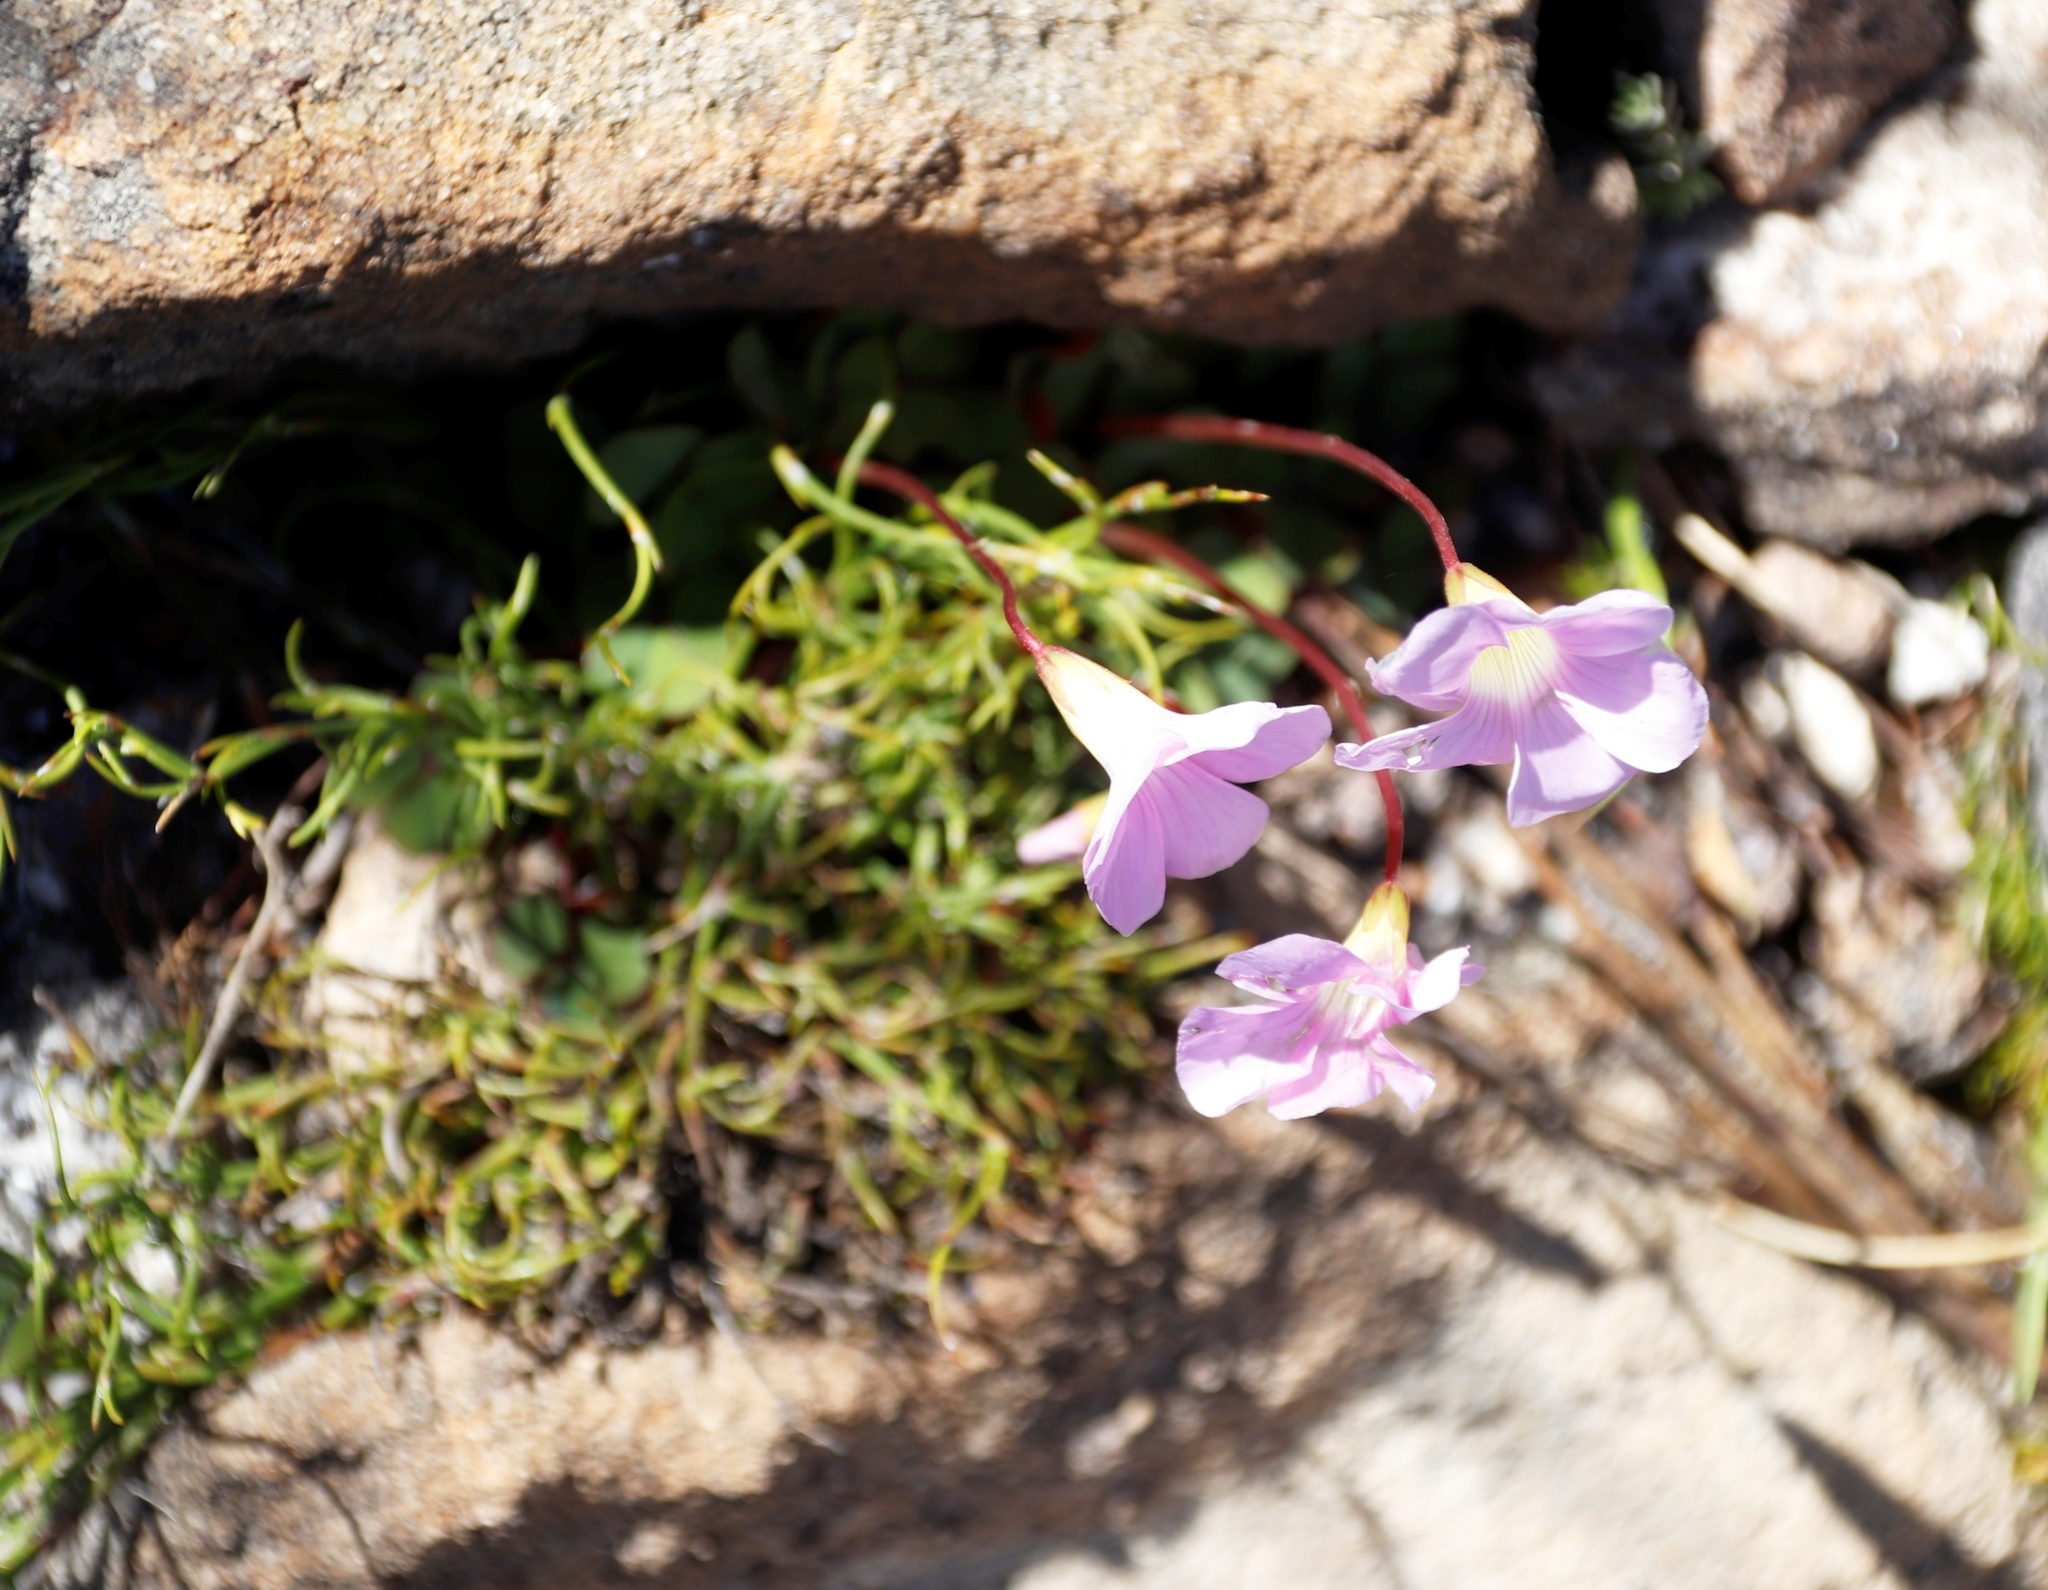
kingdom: Plantae
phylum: Tracheophyta
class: Magnoliopsida
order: Oxalidales
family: Oxalidaceae
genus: Oxalis
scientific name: Oxalis commutata
